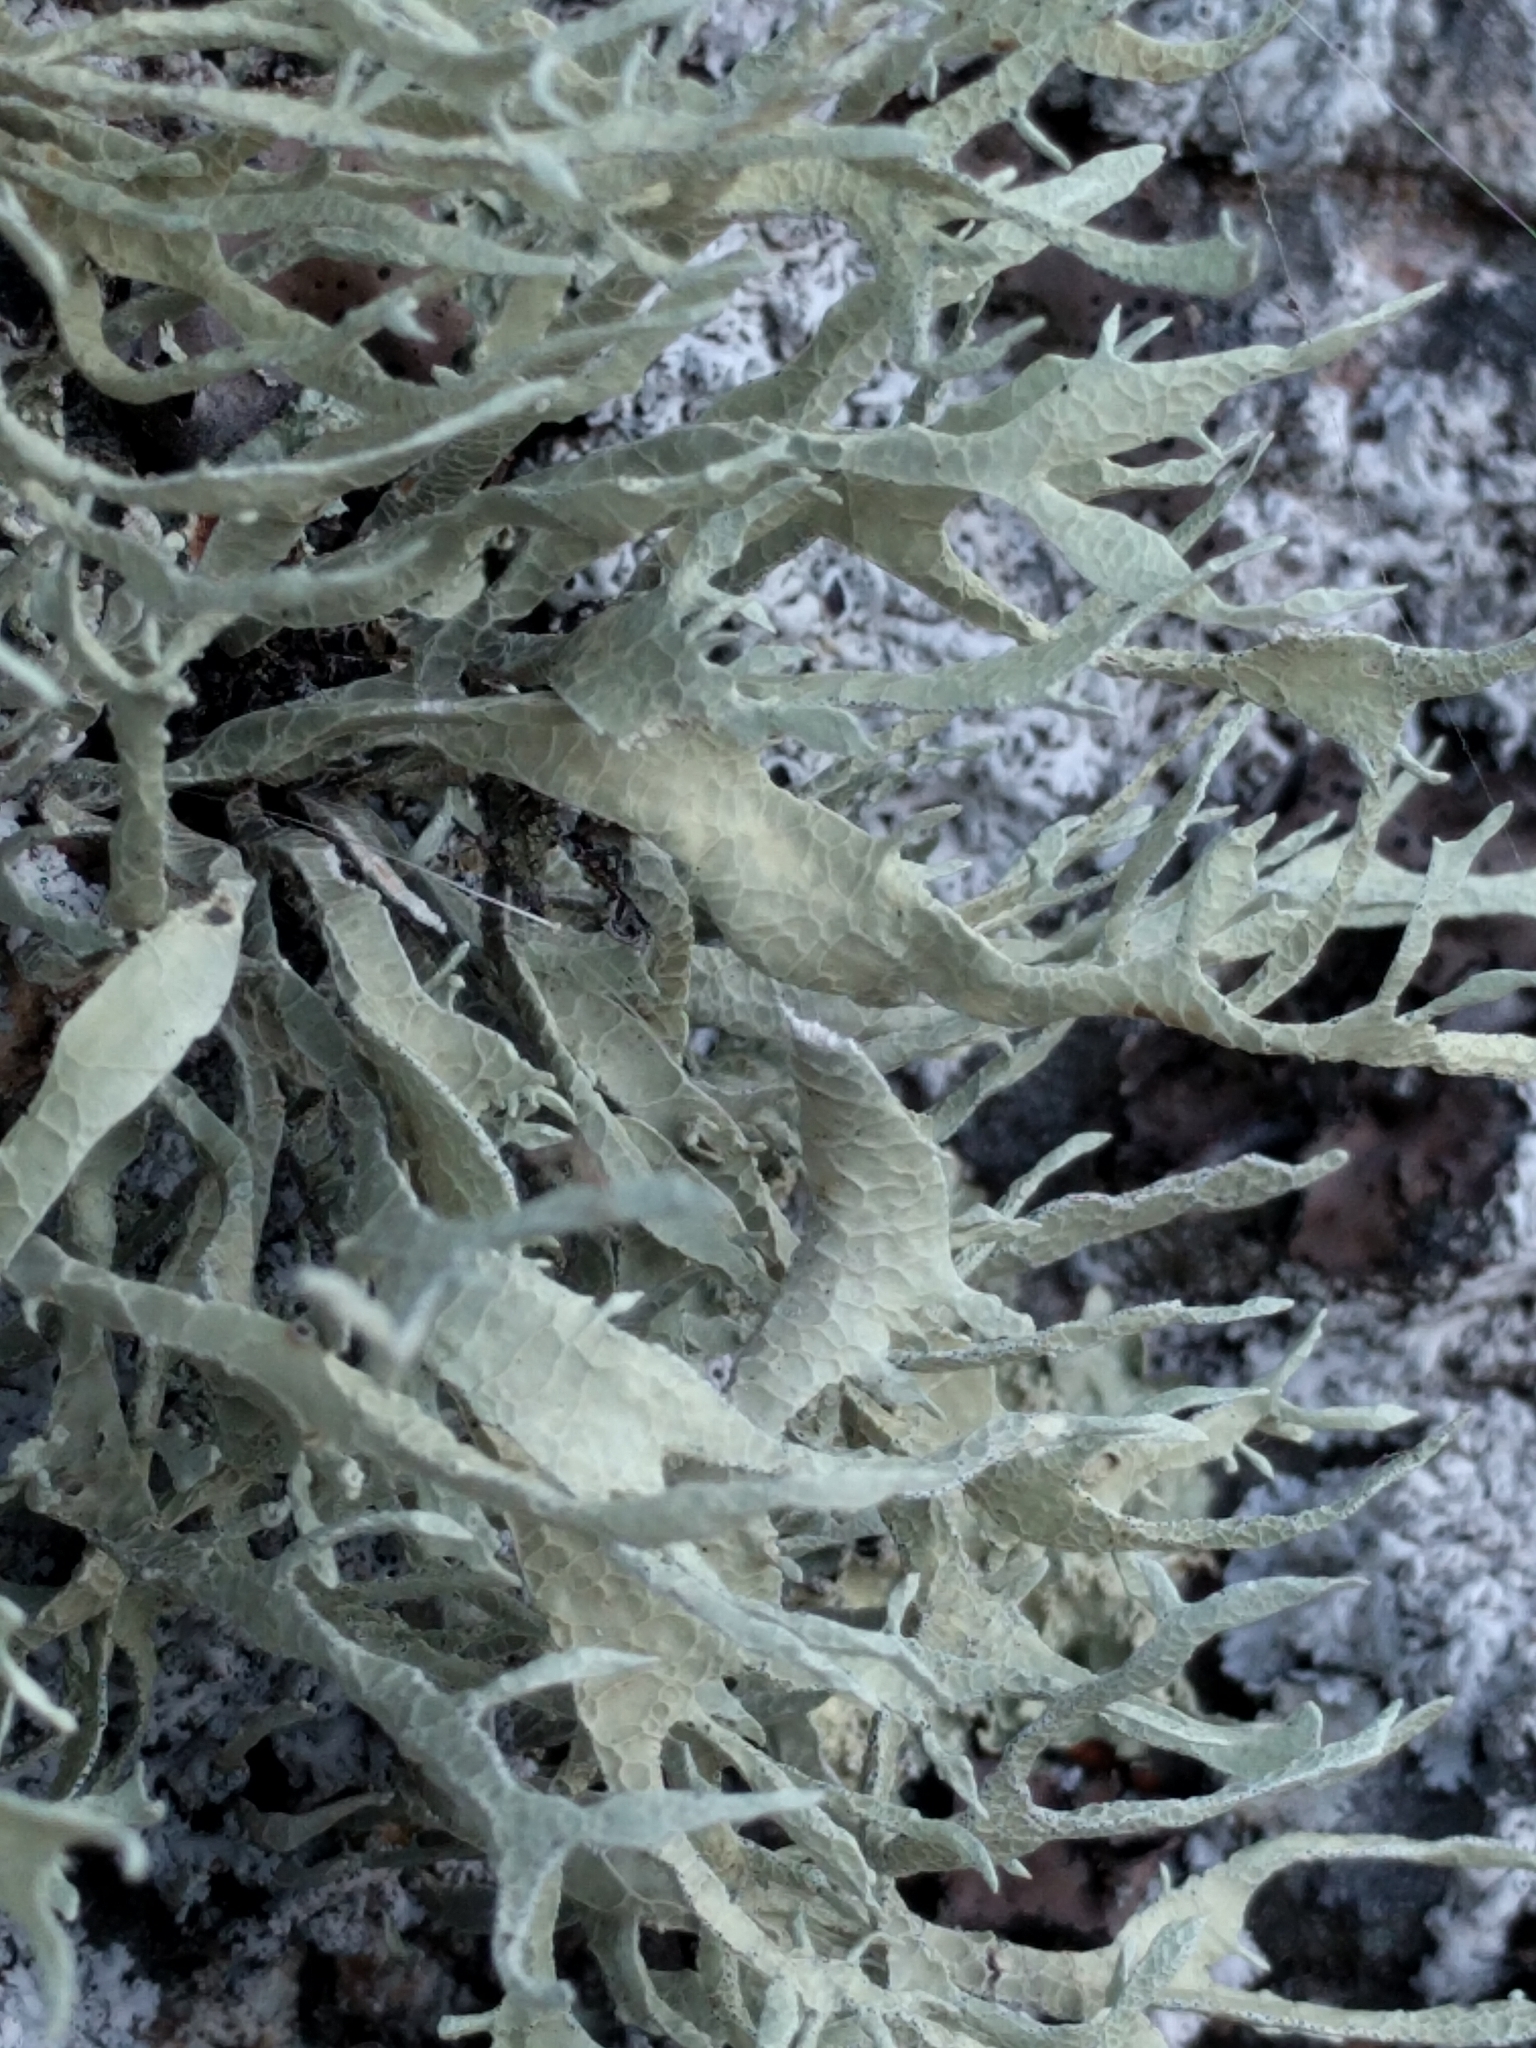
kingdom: Fungi
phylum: Ascomycota
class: Lecanoromycetes
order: Lecanorales
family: Ramalinaceae
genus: Niebla
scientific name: Niebla homalea
